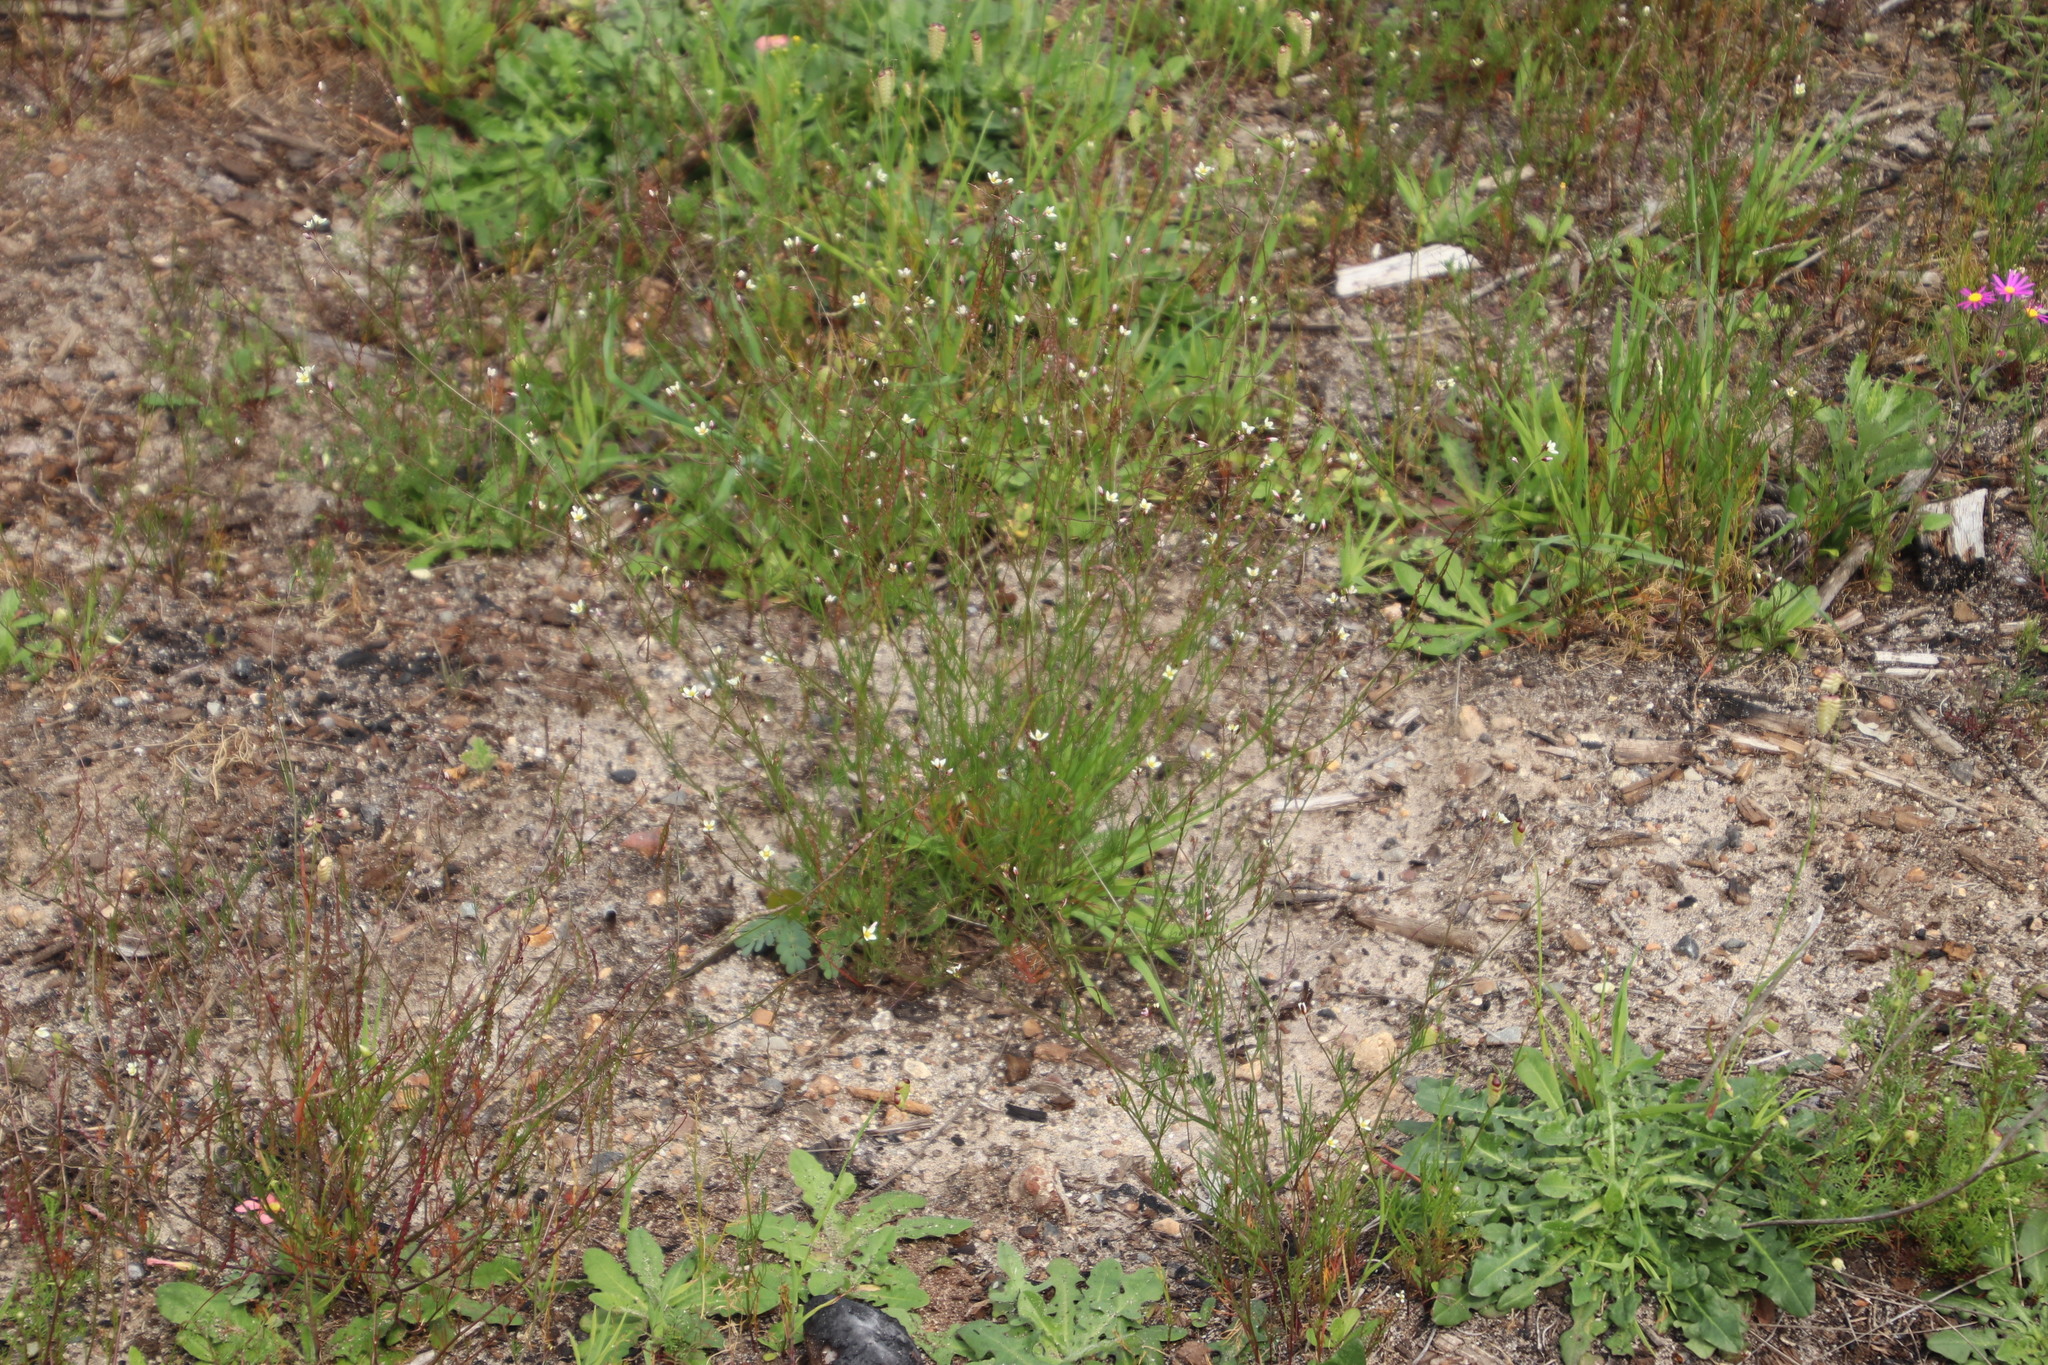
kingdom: Plantae
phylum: Tracheophyta
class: Magnoliopsida
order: Brassicales
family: Brassicaceae
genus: Heliophila
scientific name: Heliophila pendula
